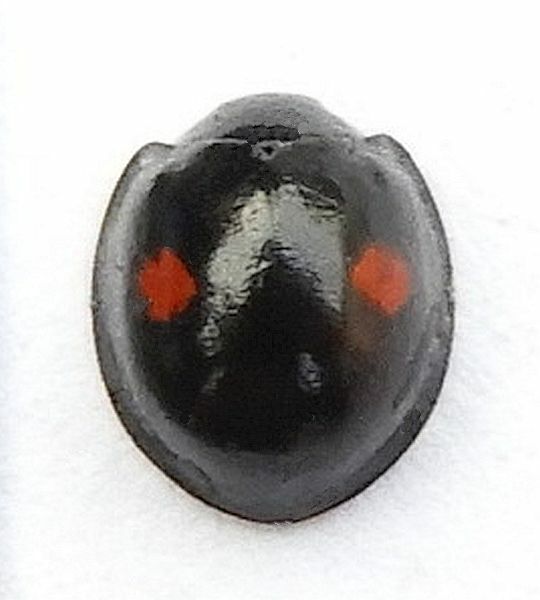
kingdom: Animalia
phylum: Arthropoda
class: Insecta
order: Coleoptera
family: Coccinellidae
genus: Chilocorus
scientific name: Chilocorus stigma
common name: Twicestabbed lady beetle
